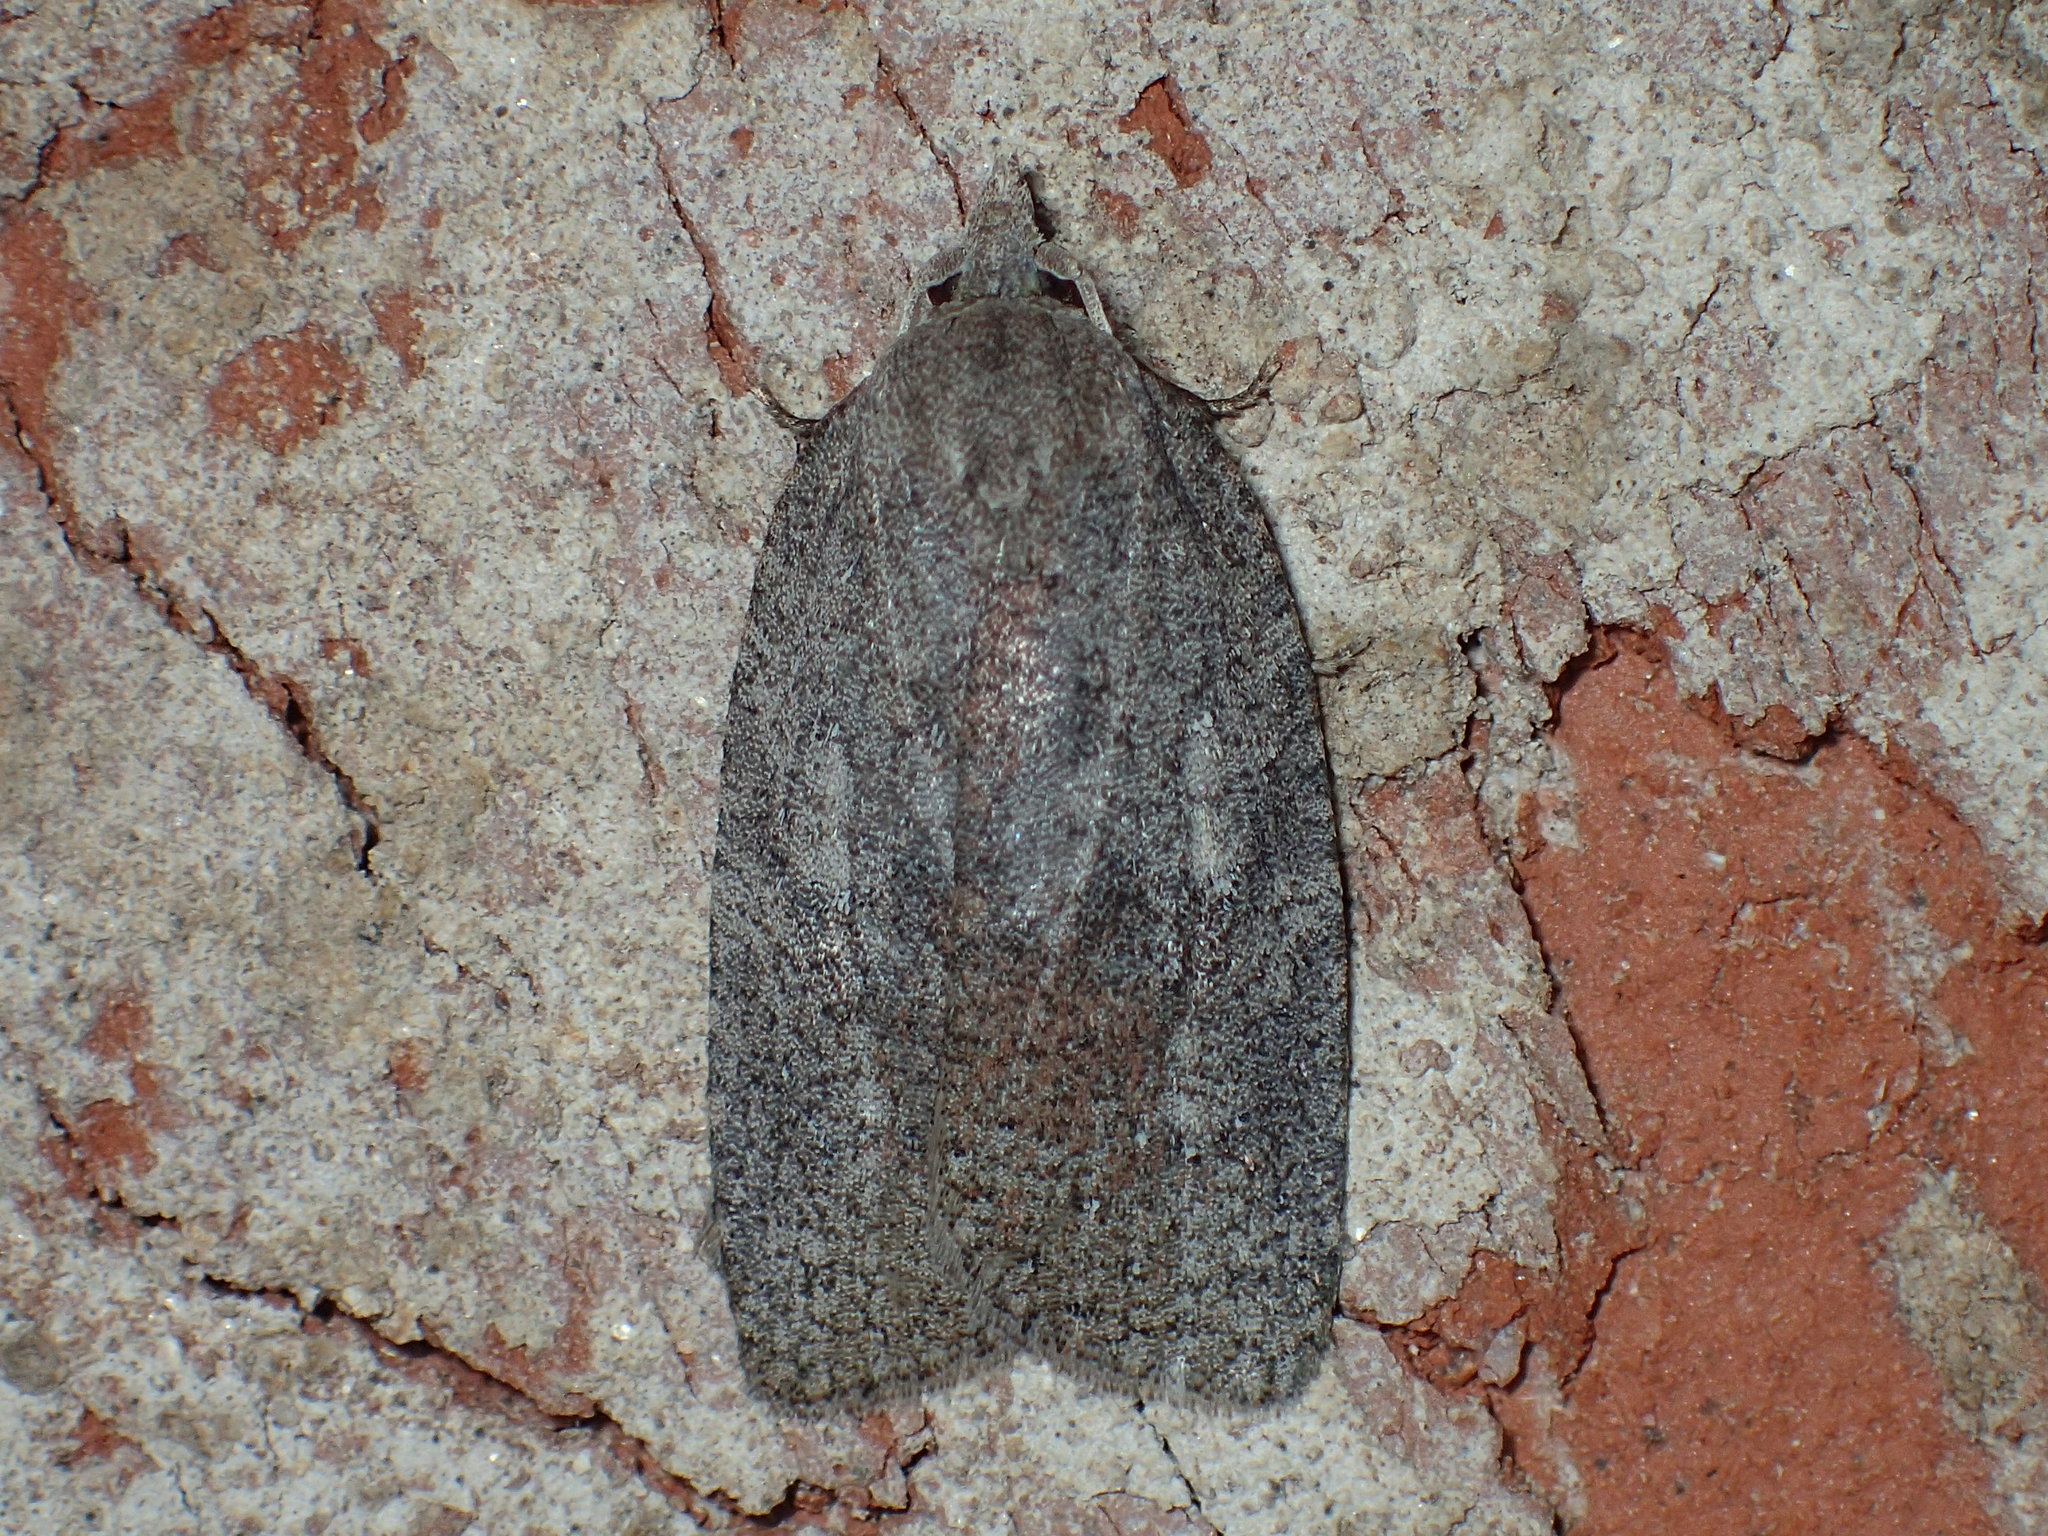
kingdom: Animalia
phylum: Arthropoda
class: Insecta
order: Lepidoptera
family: Tortricidae
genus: Amorbia
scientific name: Amorbia humerosana
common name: White-lined leafroller moth
